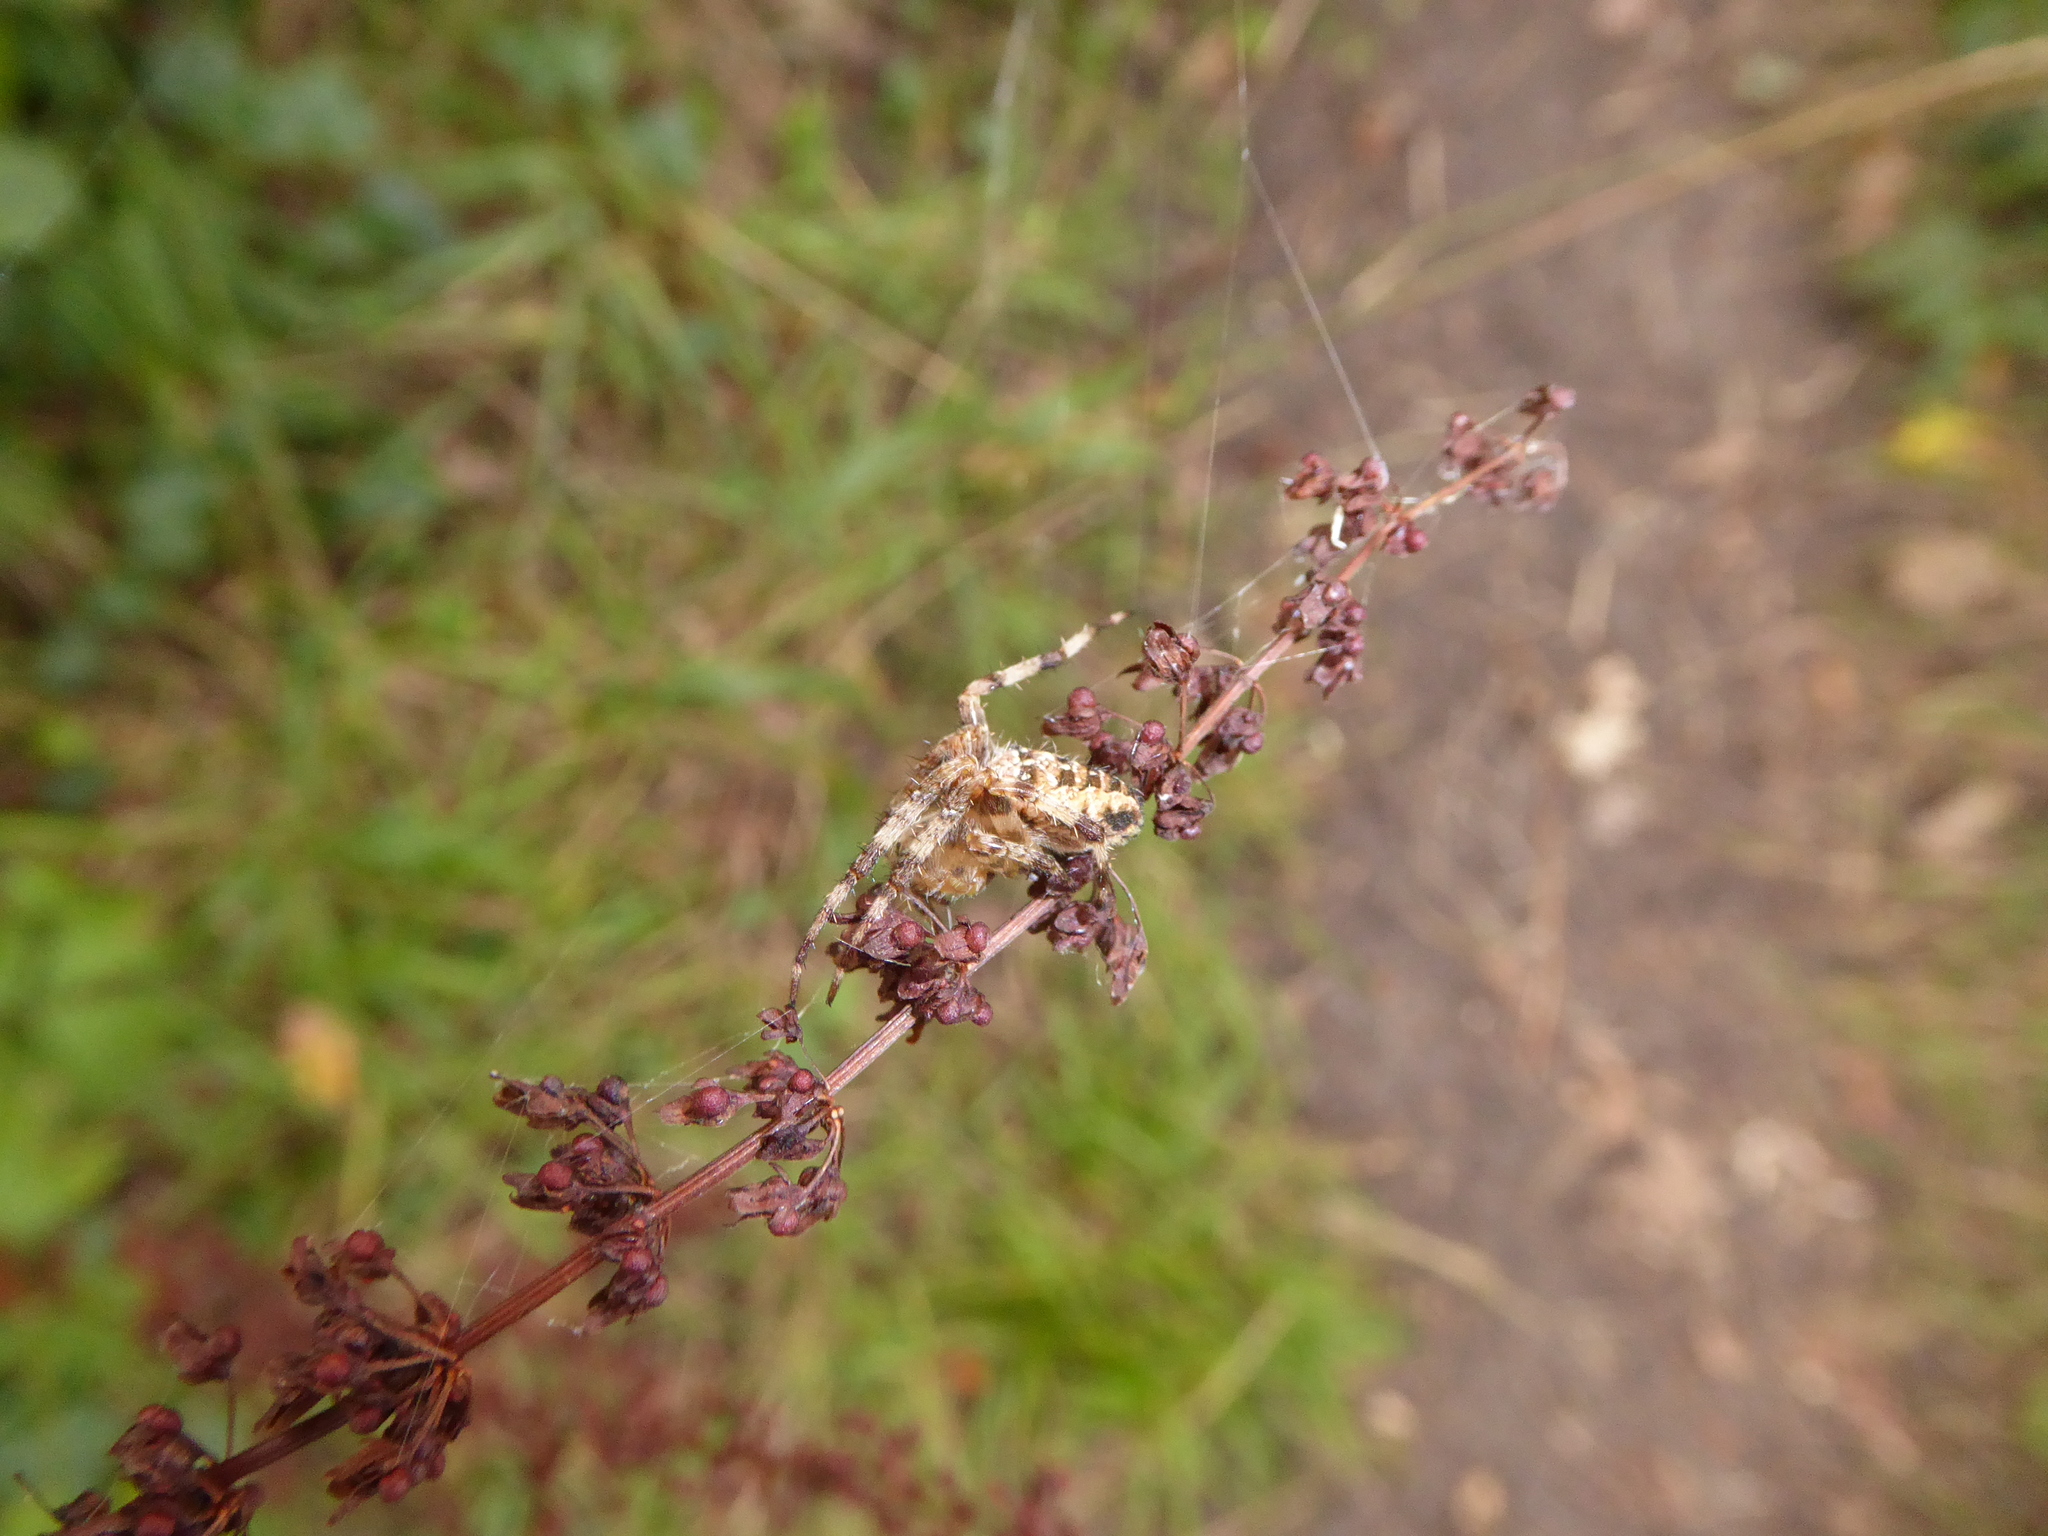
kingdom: Animalia
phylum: Arthropoda
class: Arachnida
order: Araneae
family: Araneidae
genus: Araneus
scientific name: Araneus diadematus
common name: Cross orbweaver
